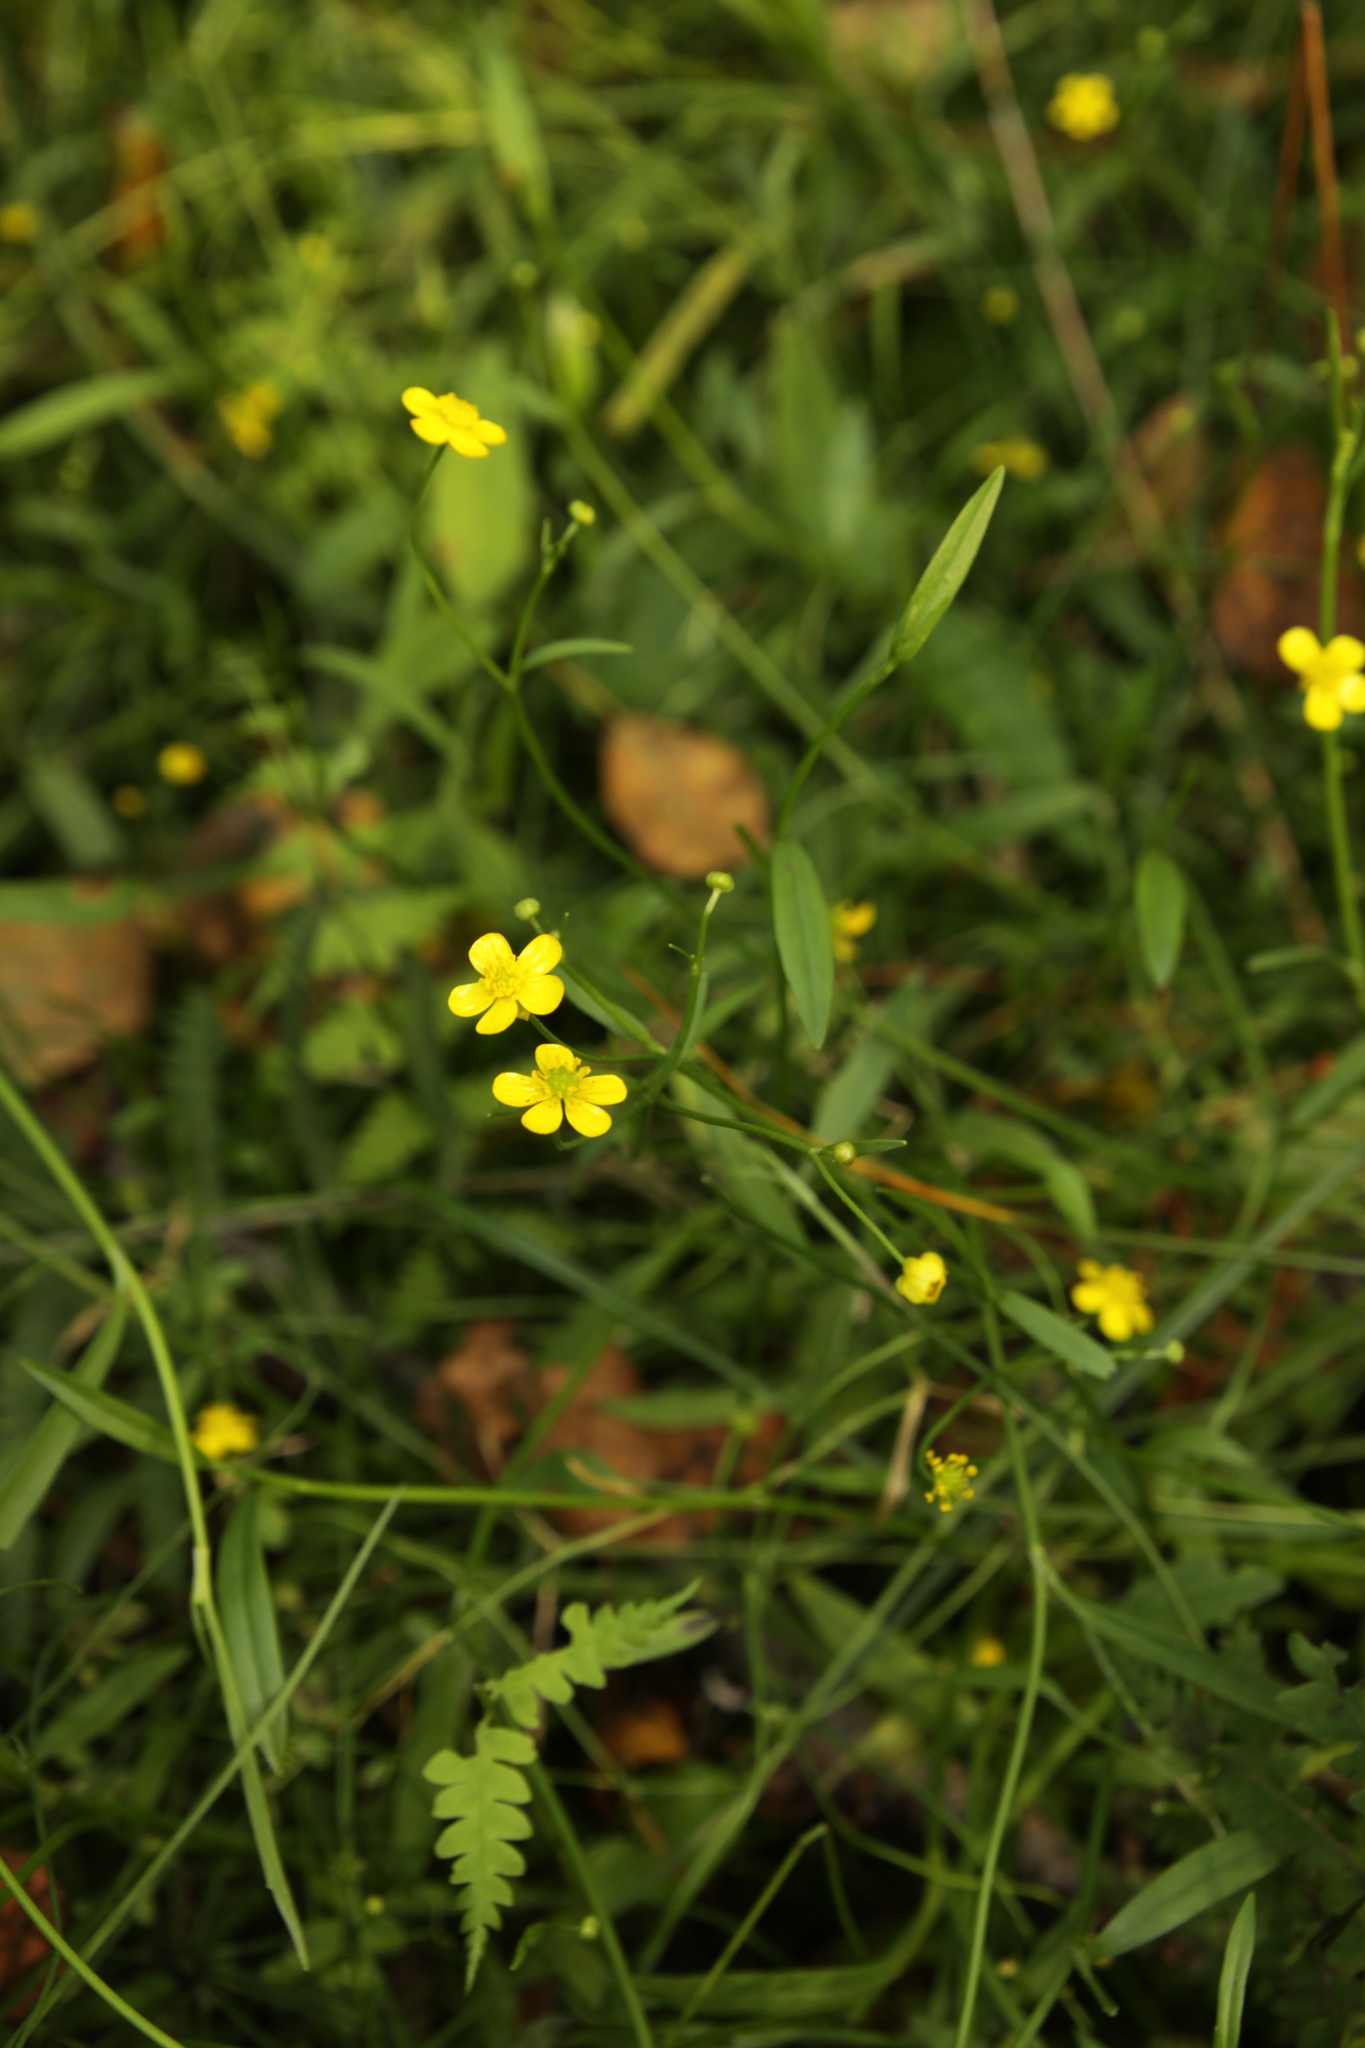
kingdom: Plantae
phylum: Tracheophyta
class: Magnoliopsida
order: Ranunculales
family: Ranunculaceae
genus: Ranunculus
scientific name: Ranunculus flammula
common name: Lesser spearwort
